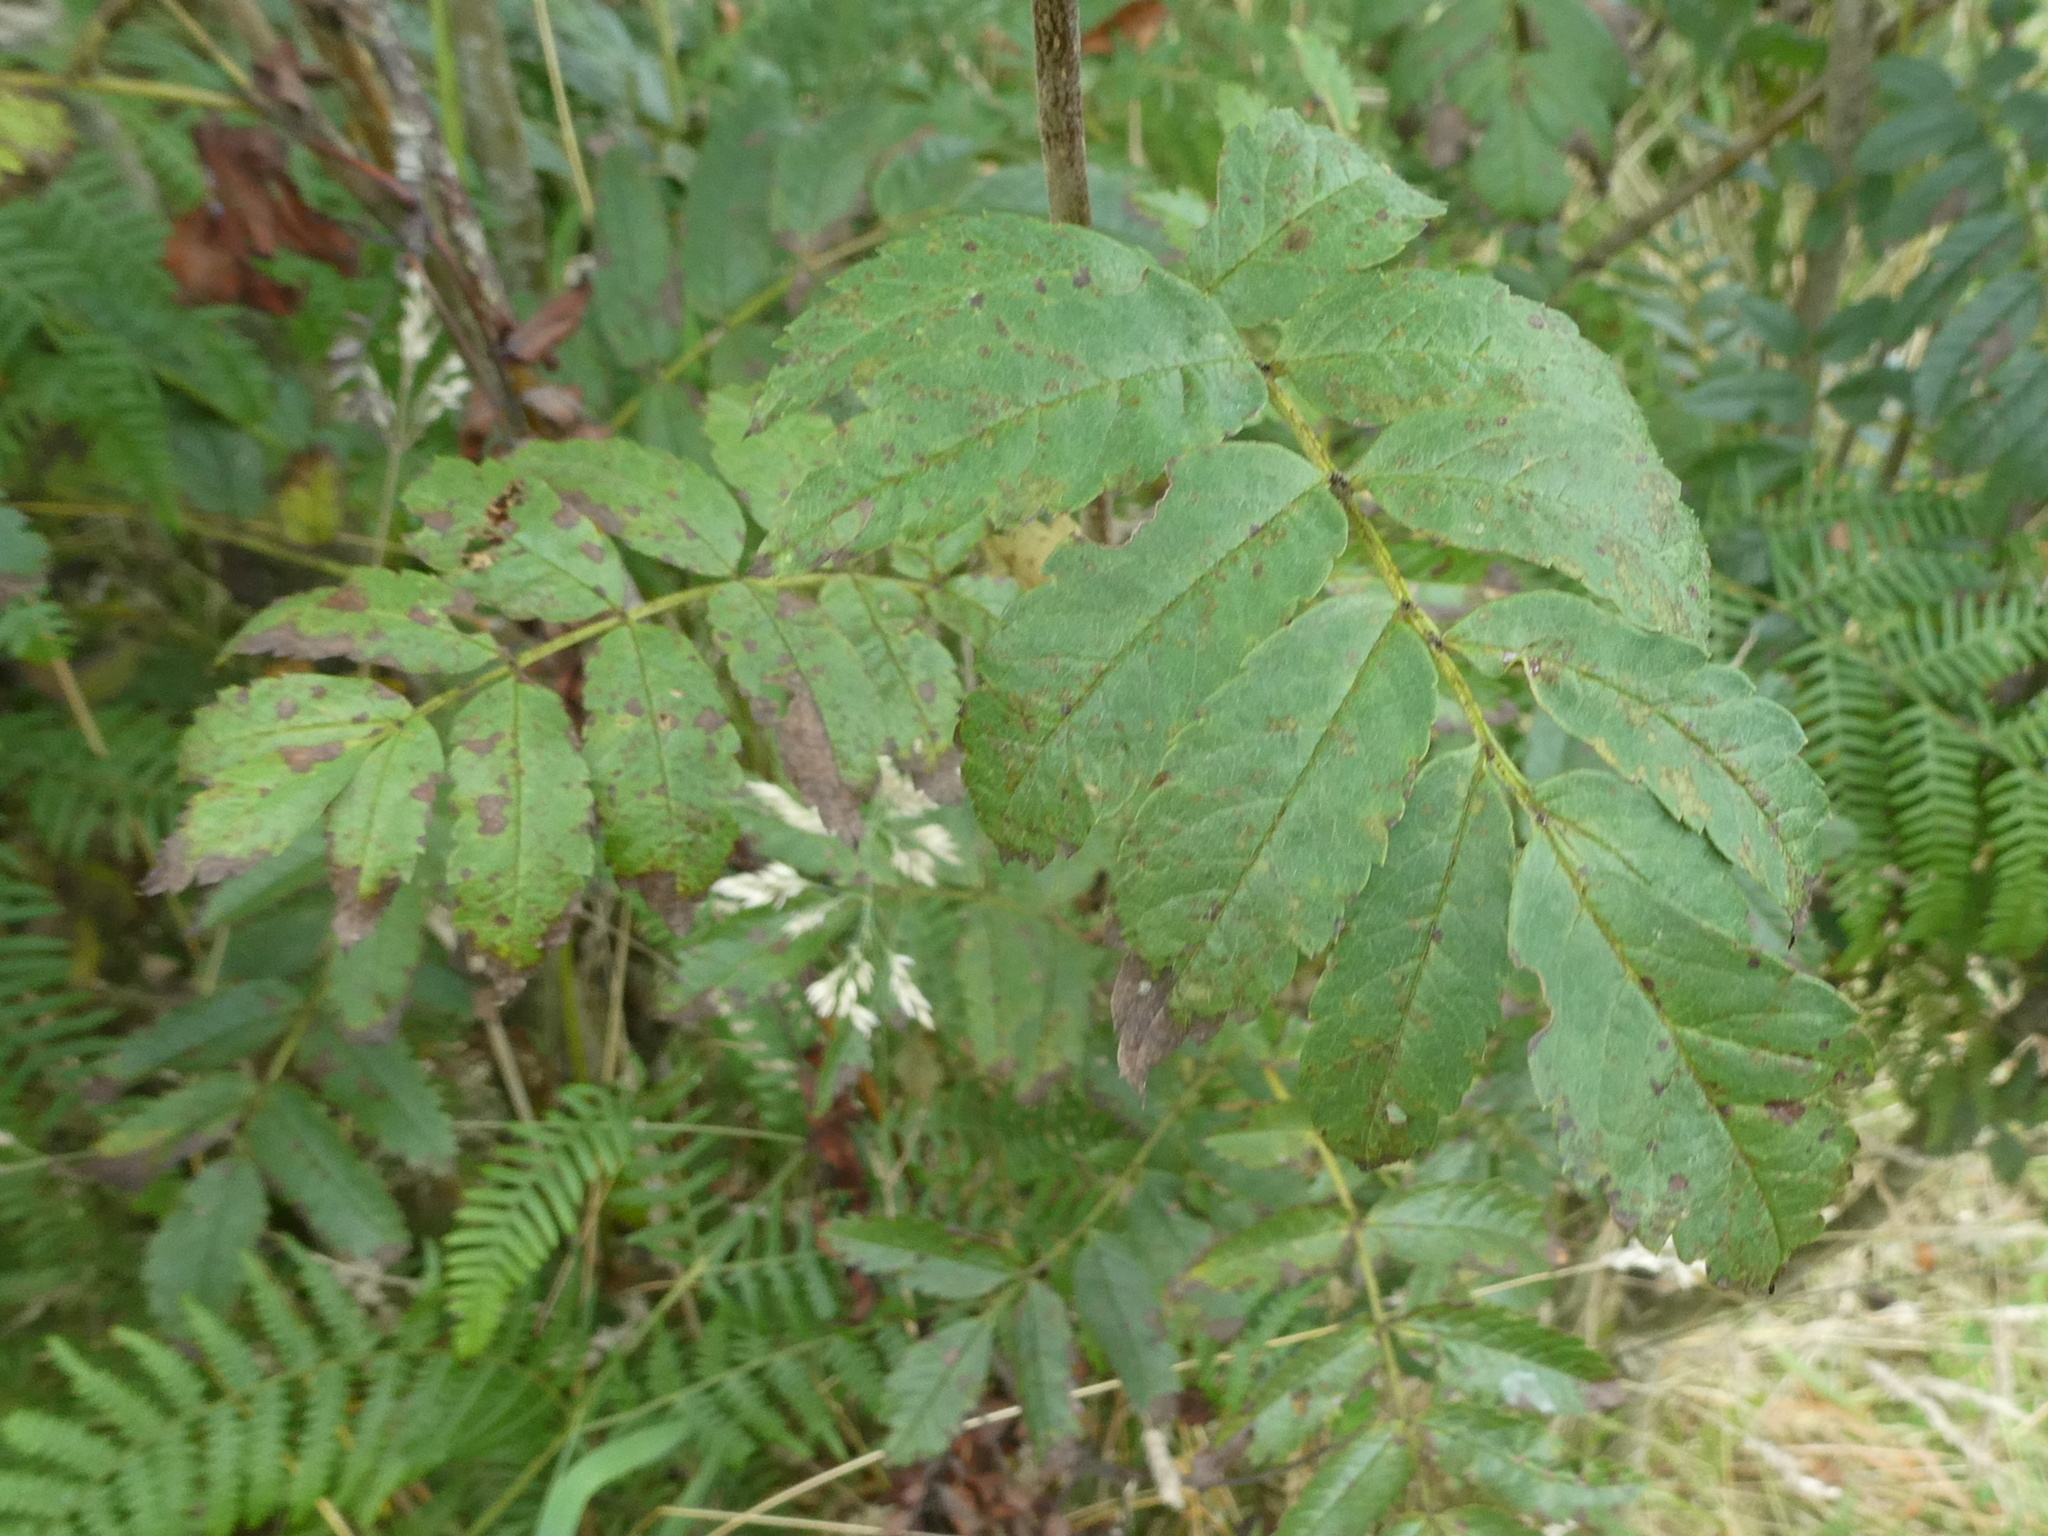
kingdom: Plantae
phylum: Tracheophyta
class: Magnoliopsida
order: Rosales
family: Rosaceae
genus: Sorbus
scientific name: Sorbus aucuparia
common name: Rowan
